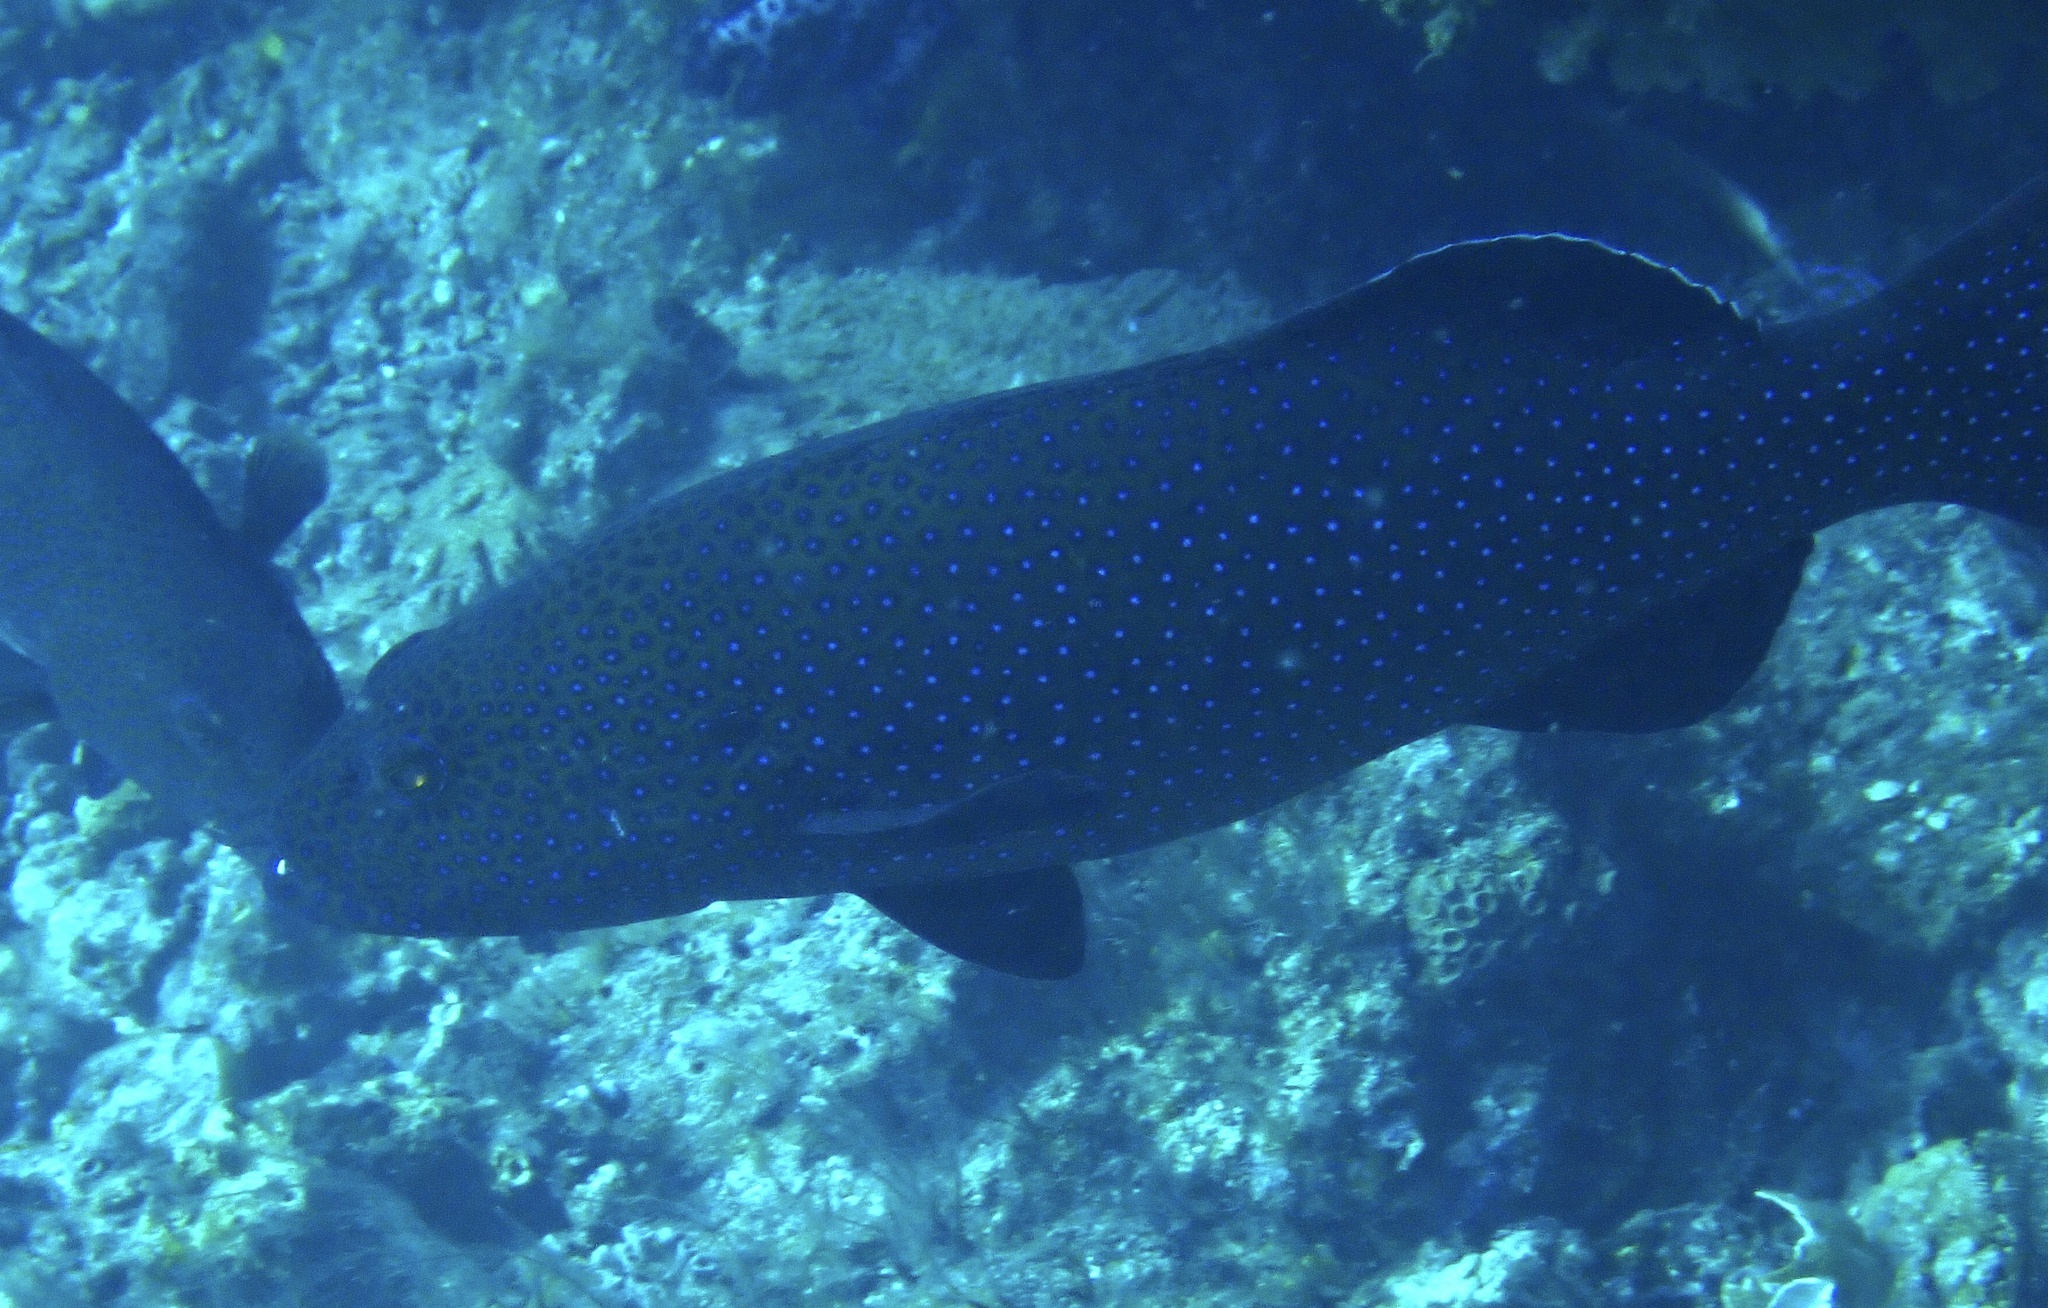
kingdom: Animalia
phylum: Chordata
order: Perciformes
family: Serranidae
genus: Plectropomus
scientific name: Plectropomus areolatus
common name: Squaretail coralgrouper
